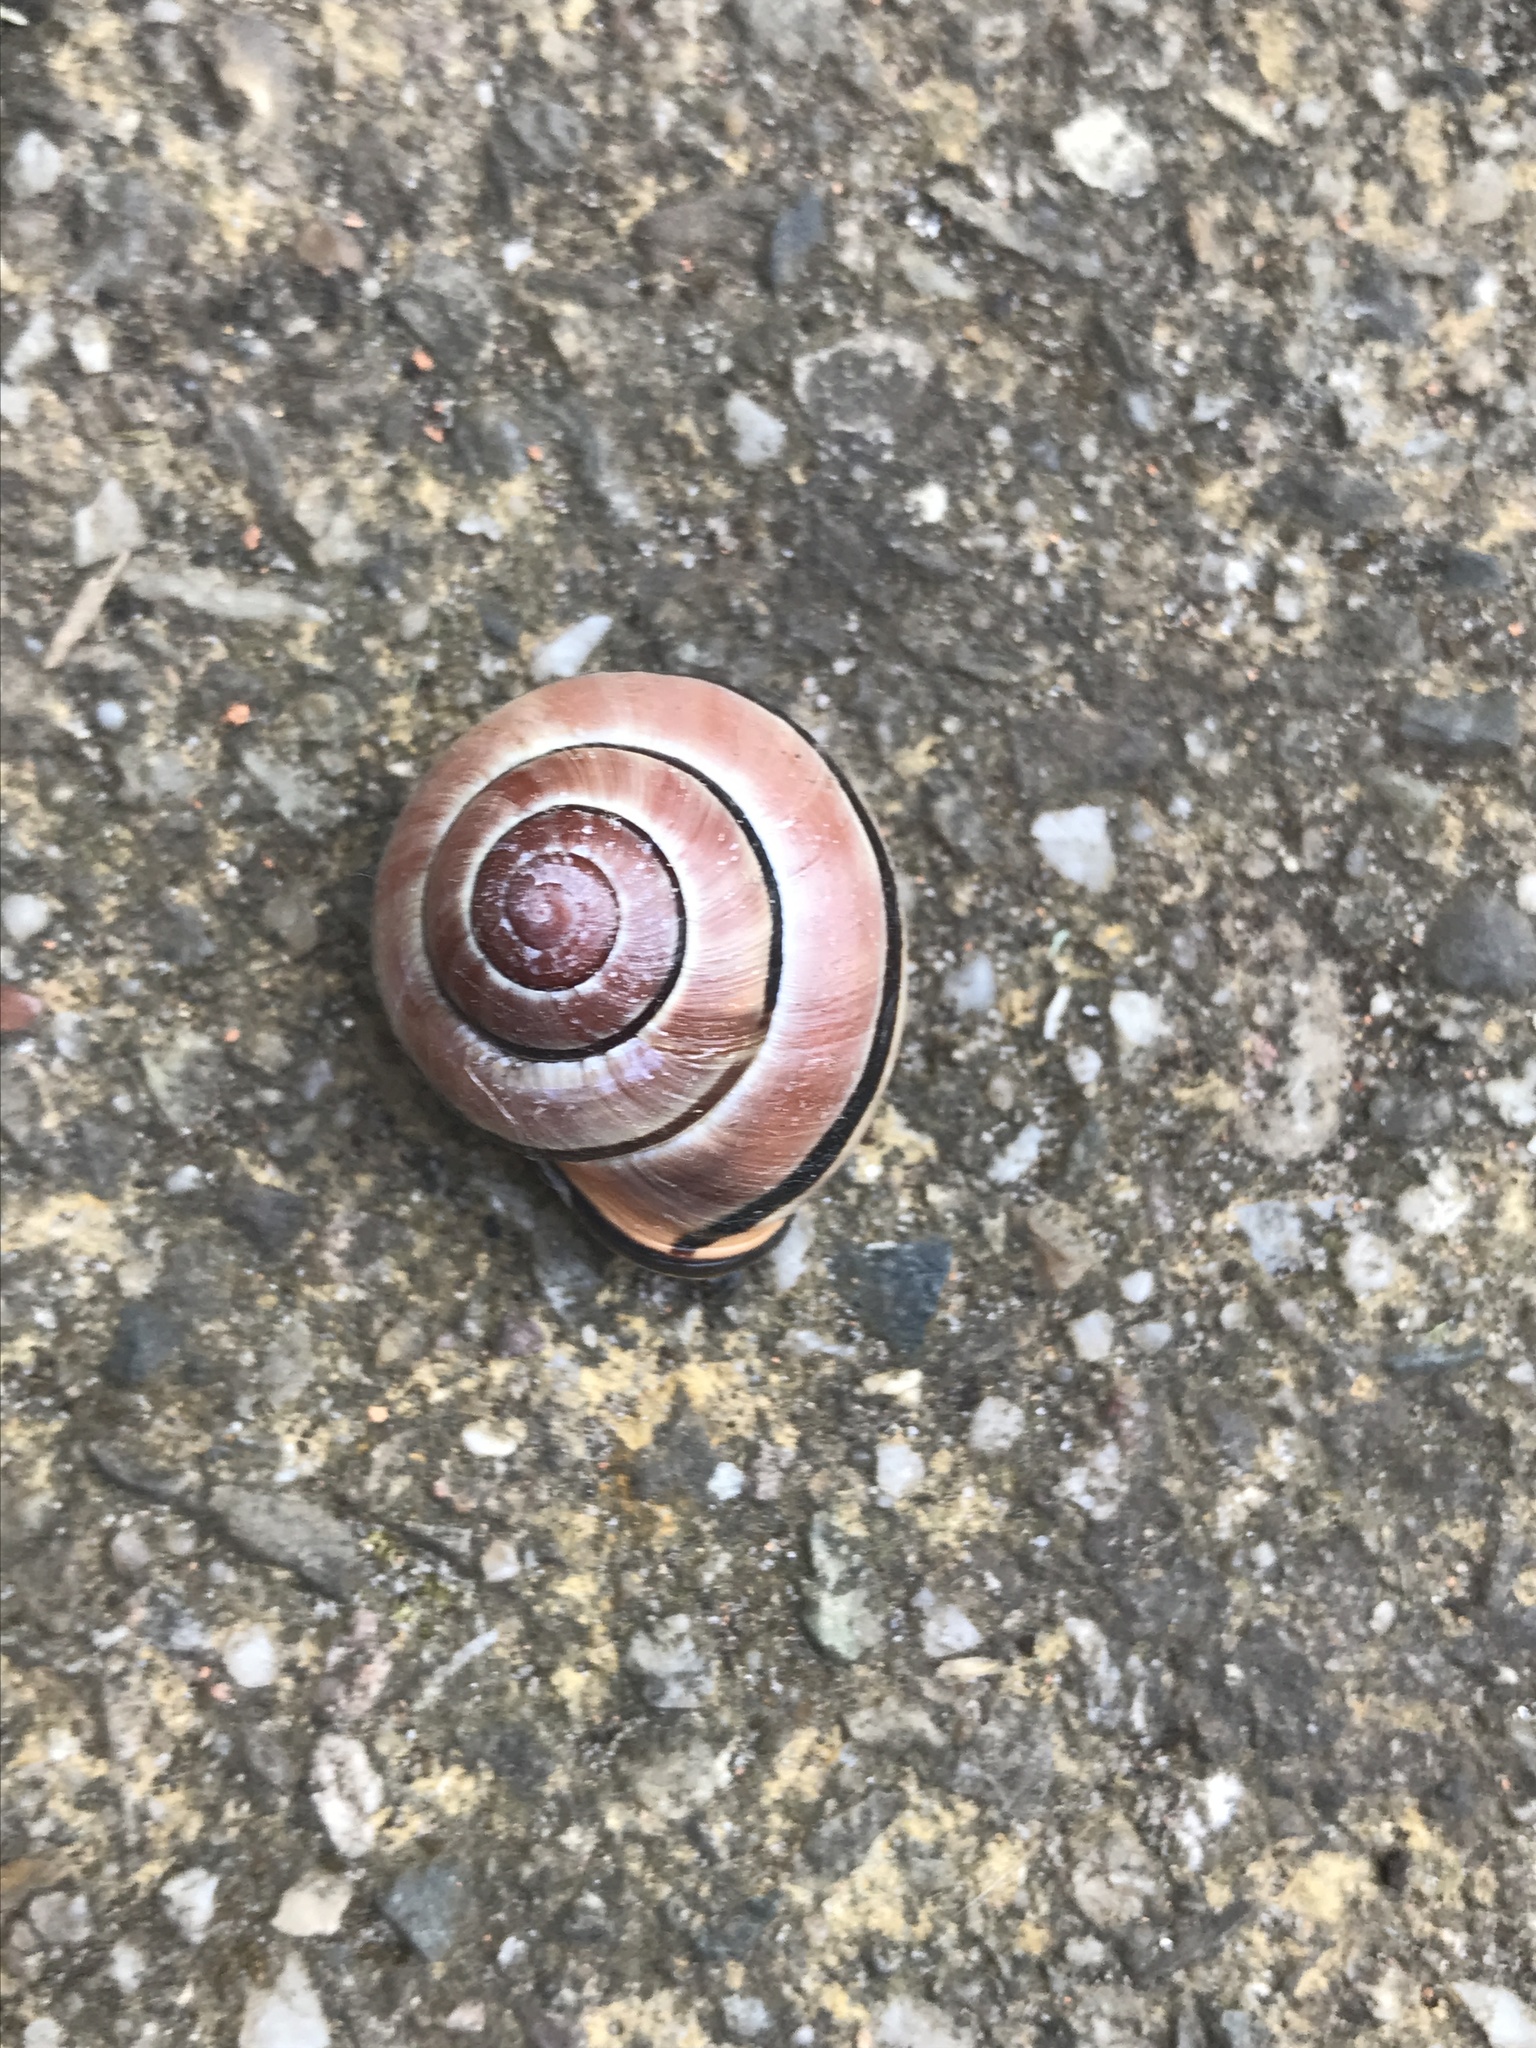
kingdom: Animalia
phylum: Mollusca
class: Gastropoda
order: Stylommatophora
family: Helicidae
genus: Cepaea
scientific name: Cepaea nemoralis
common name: Grovesnail
